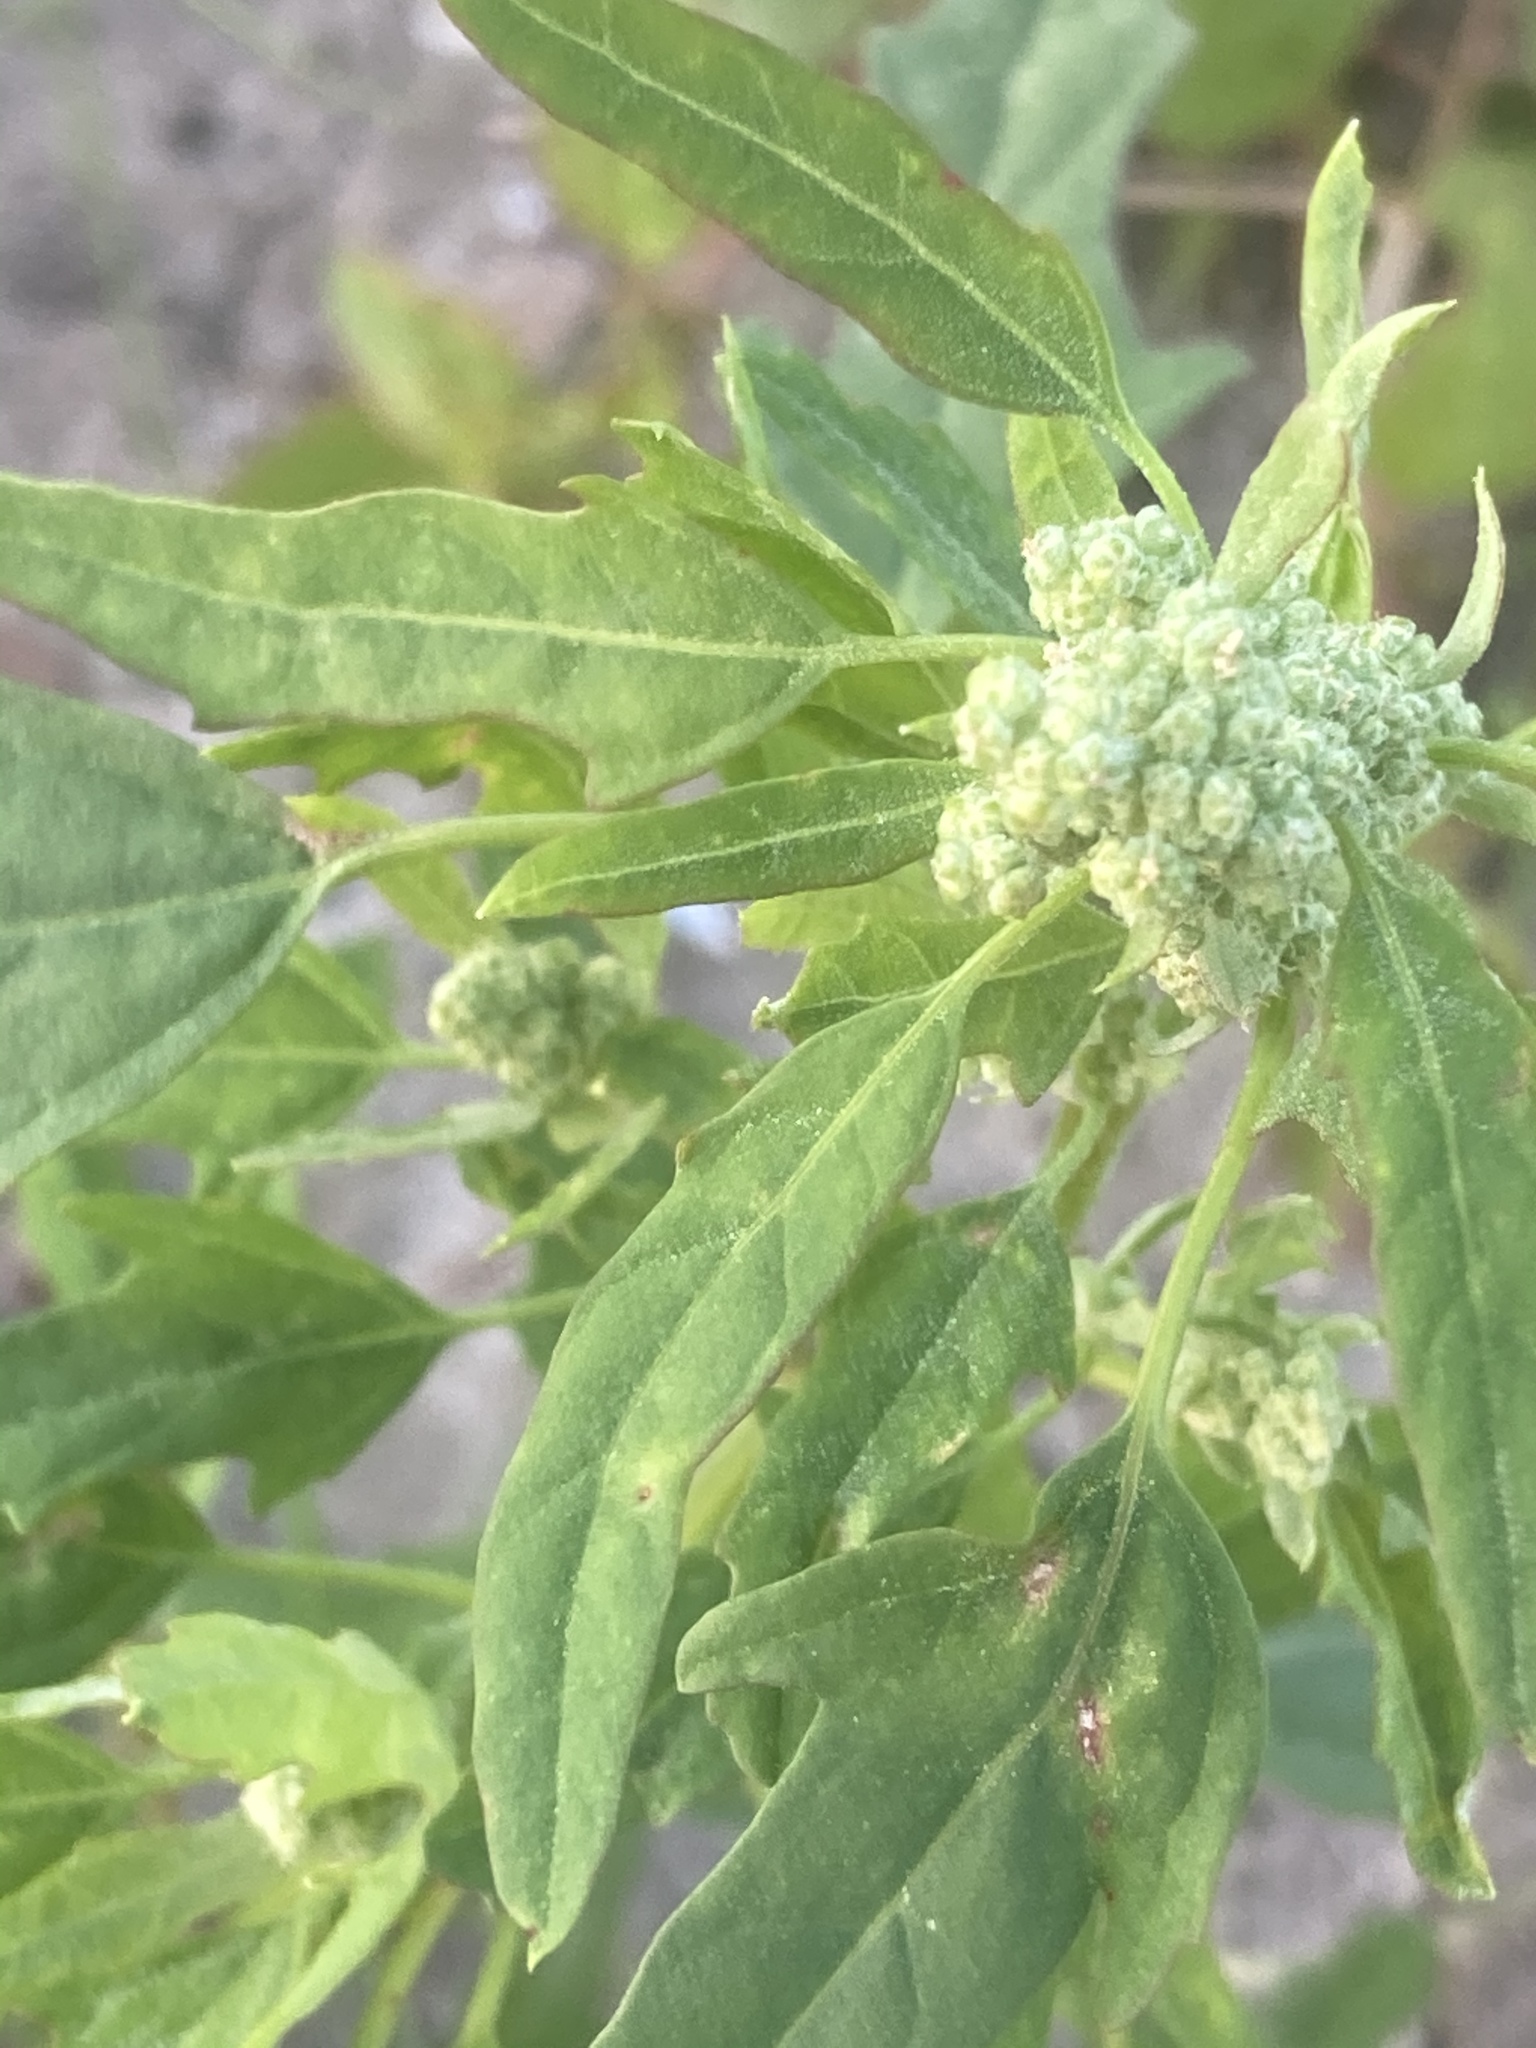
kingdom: Plantae
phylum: Tracheophyta
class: Magnoliopsida
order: Caryophyllales
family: Amaranthaceae
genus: Chenopodium
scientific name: Chenopodium ficifolium
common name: Fig-leaved goosefoot
